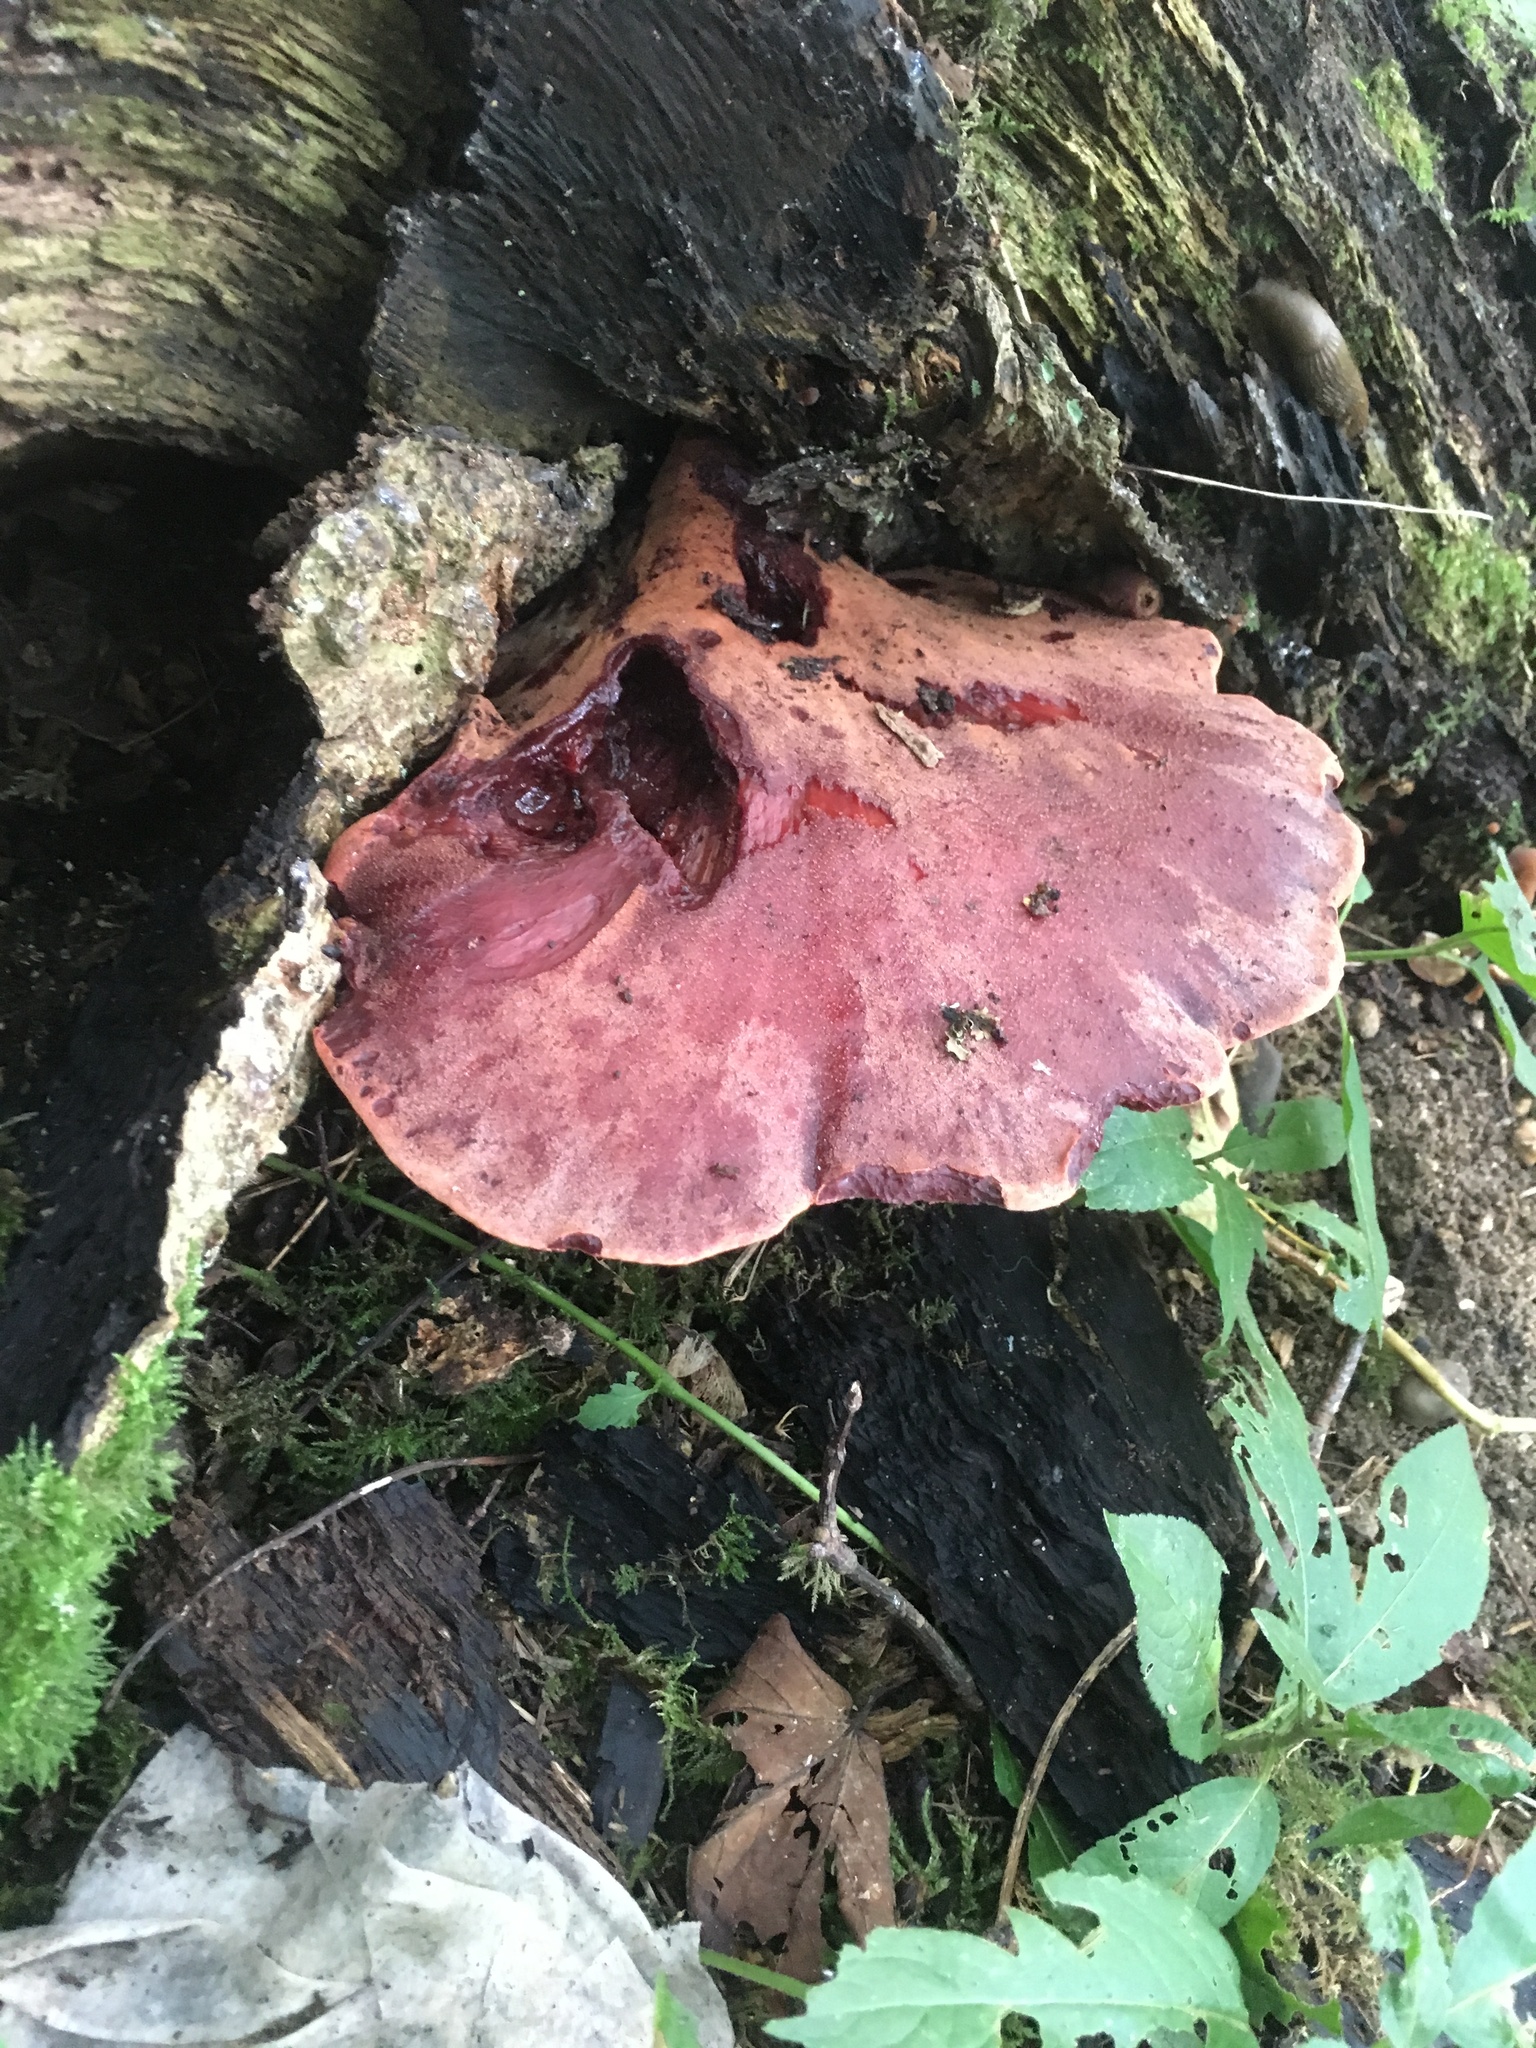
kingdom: Fungi
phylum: Basidiomycota
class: Agaricomycetes
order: Agaricales
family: Fistulinaceae
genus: Fistulina
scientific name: Fistulina hepatica
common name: Beef-steak fungus
